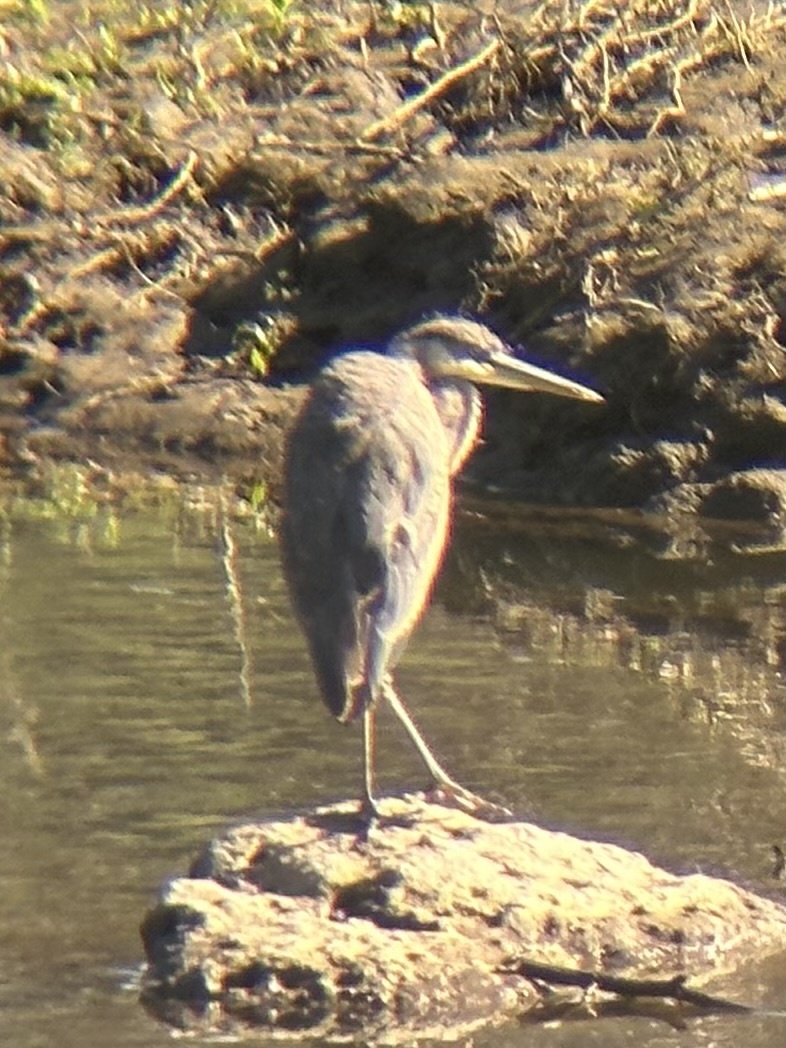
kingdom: Animalia
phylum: Chordata
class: Aves
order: Pelecaniformes
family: Ardeidae
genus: Ardea
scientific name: Ardea herodias
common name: Great blue heron
